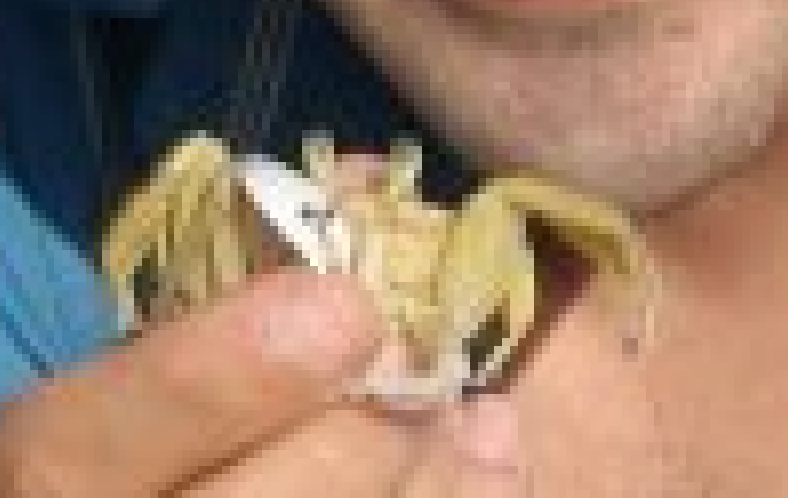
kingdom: Animalia
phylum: Arthropoda
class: Malacostraca
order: Decapoda
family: Ocypodidae
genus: Ocypode
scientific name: Ocypode quadrata
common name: Ghost crab
